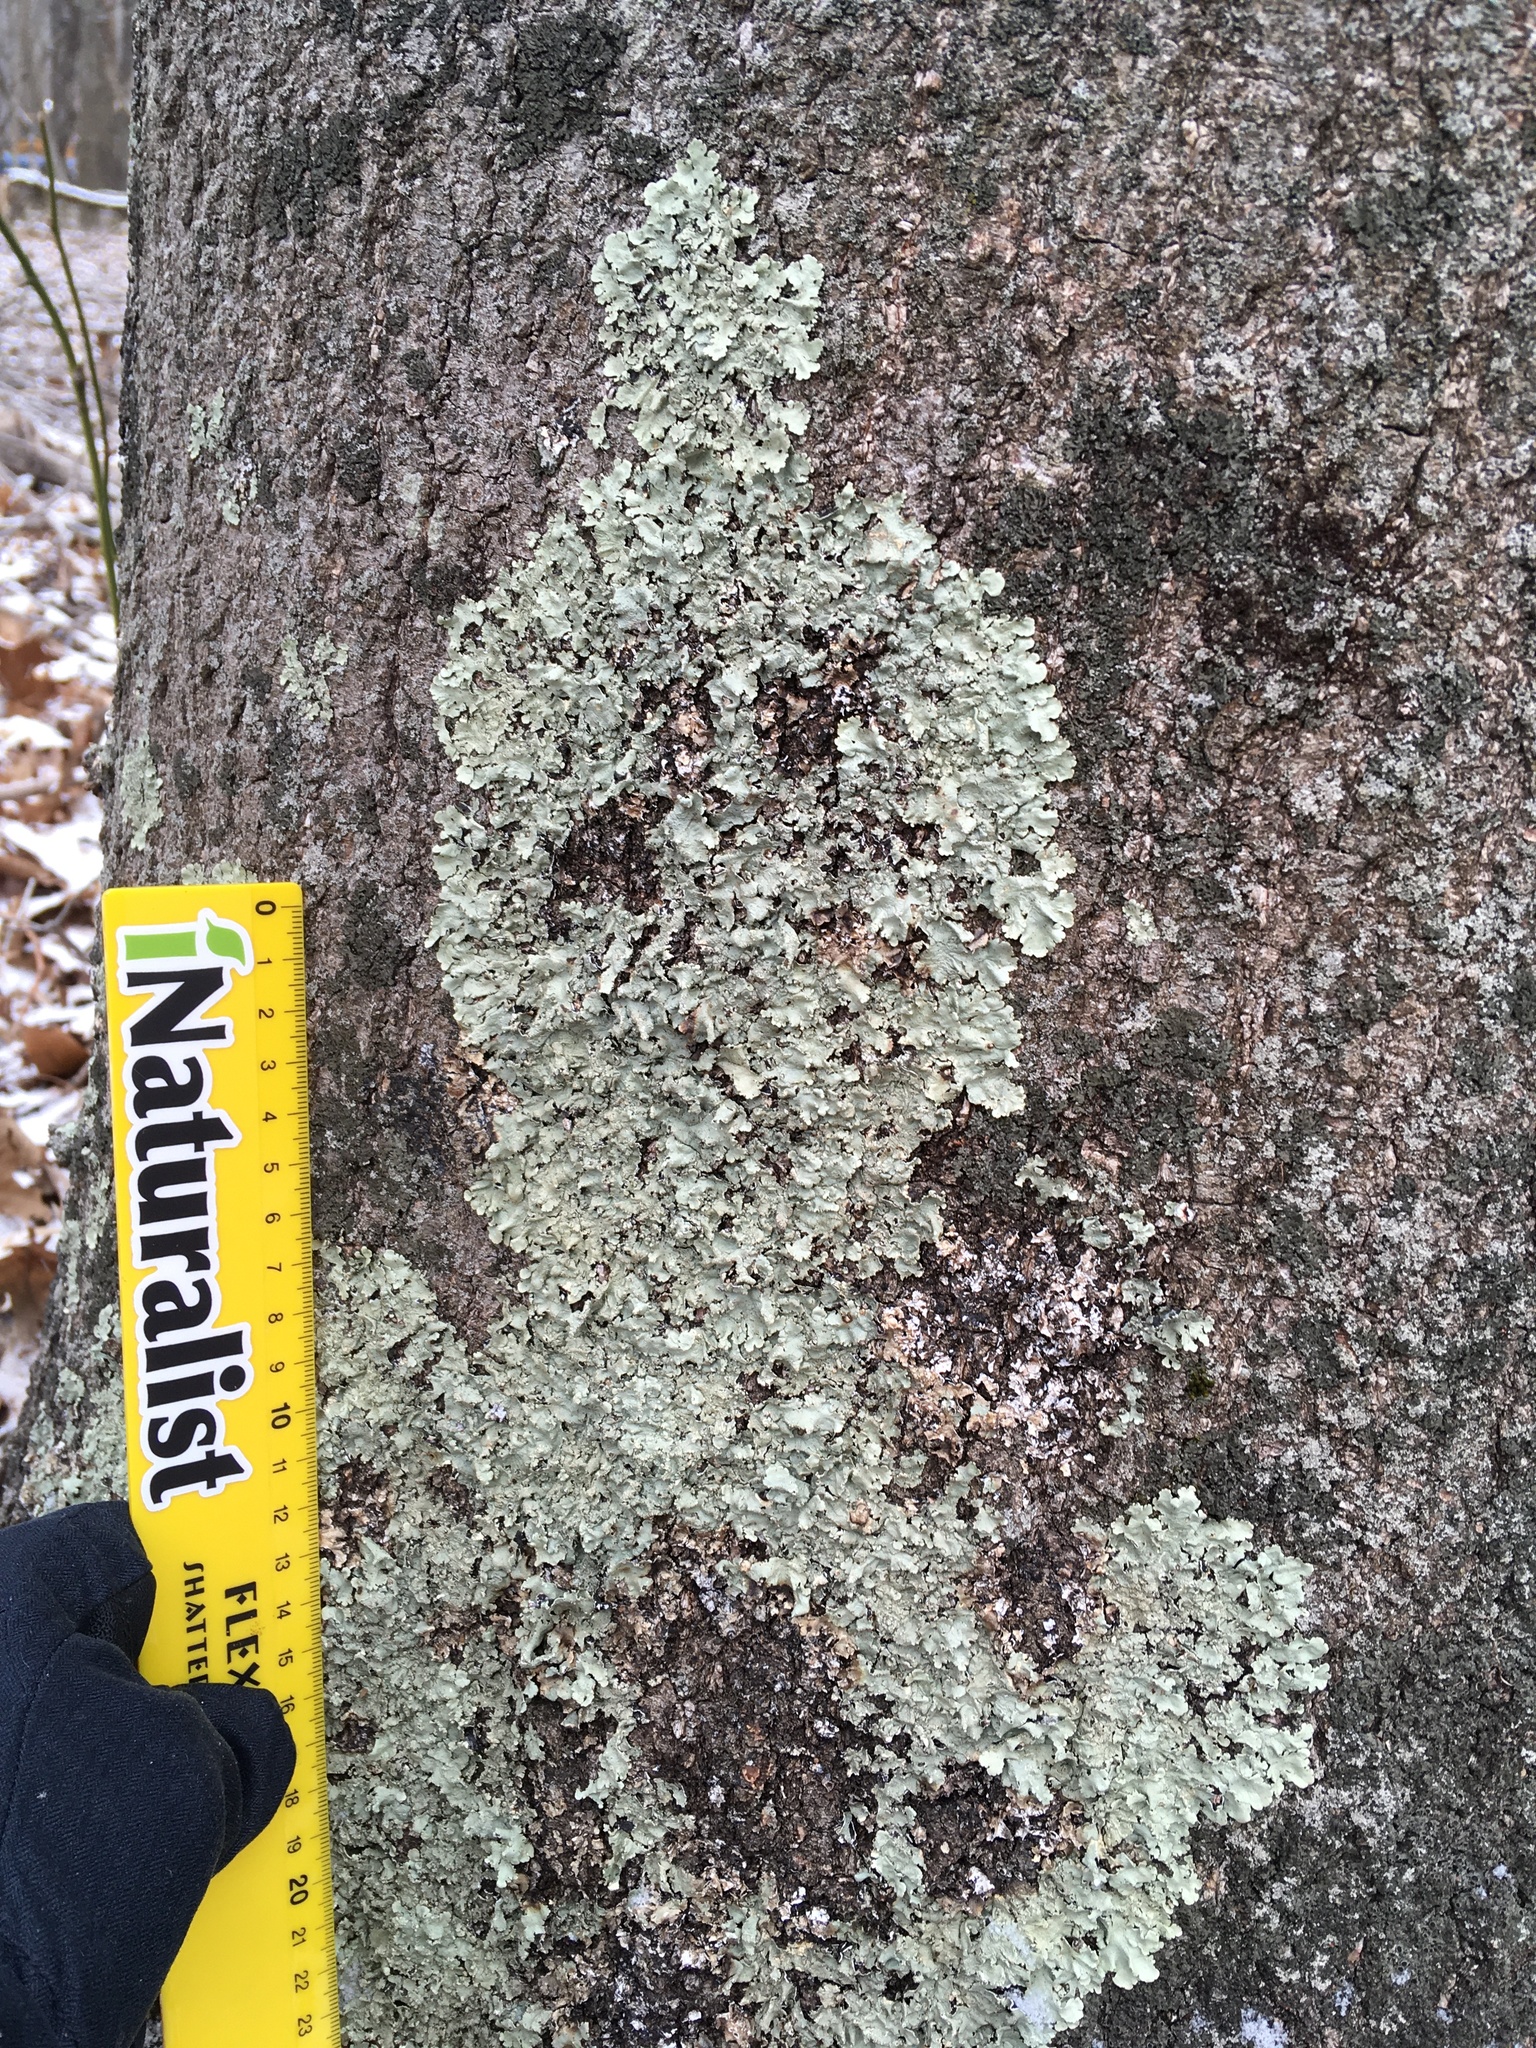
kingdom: Fungi
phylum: Ascomycota
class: Lecanoromycetes
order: Lecanorales
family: Parmeliaceae
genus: Flavoparmelia
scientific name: Flavoparmelia caperata
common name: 40-mile per hour lichen
